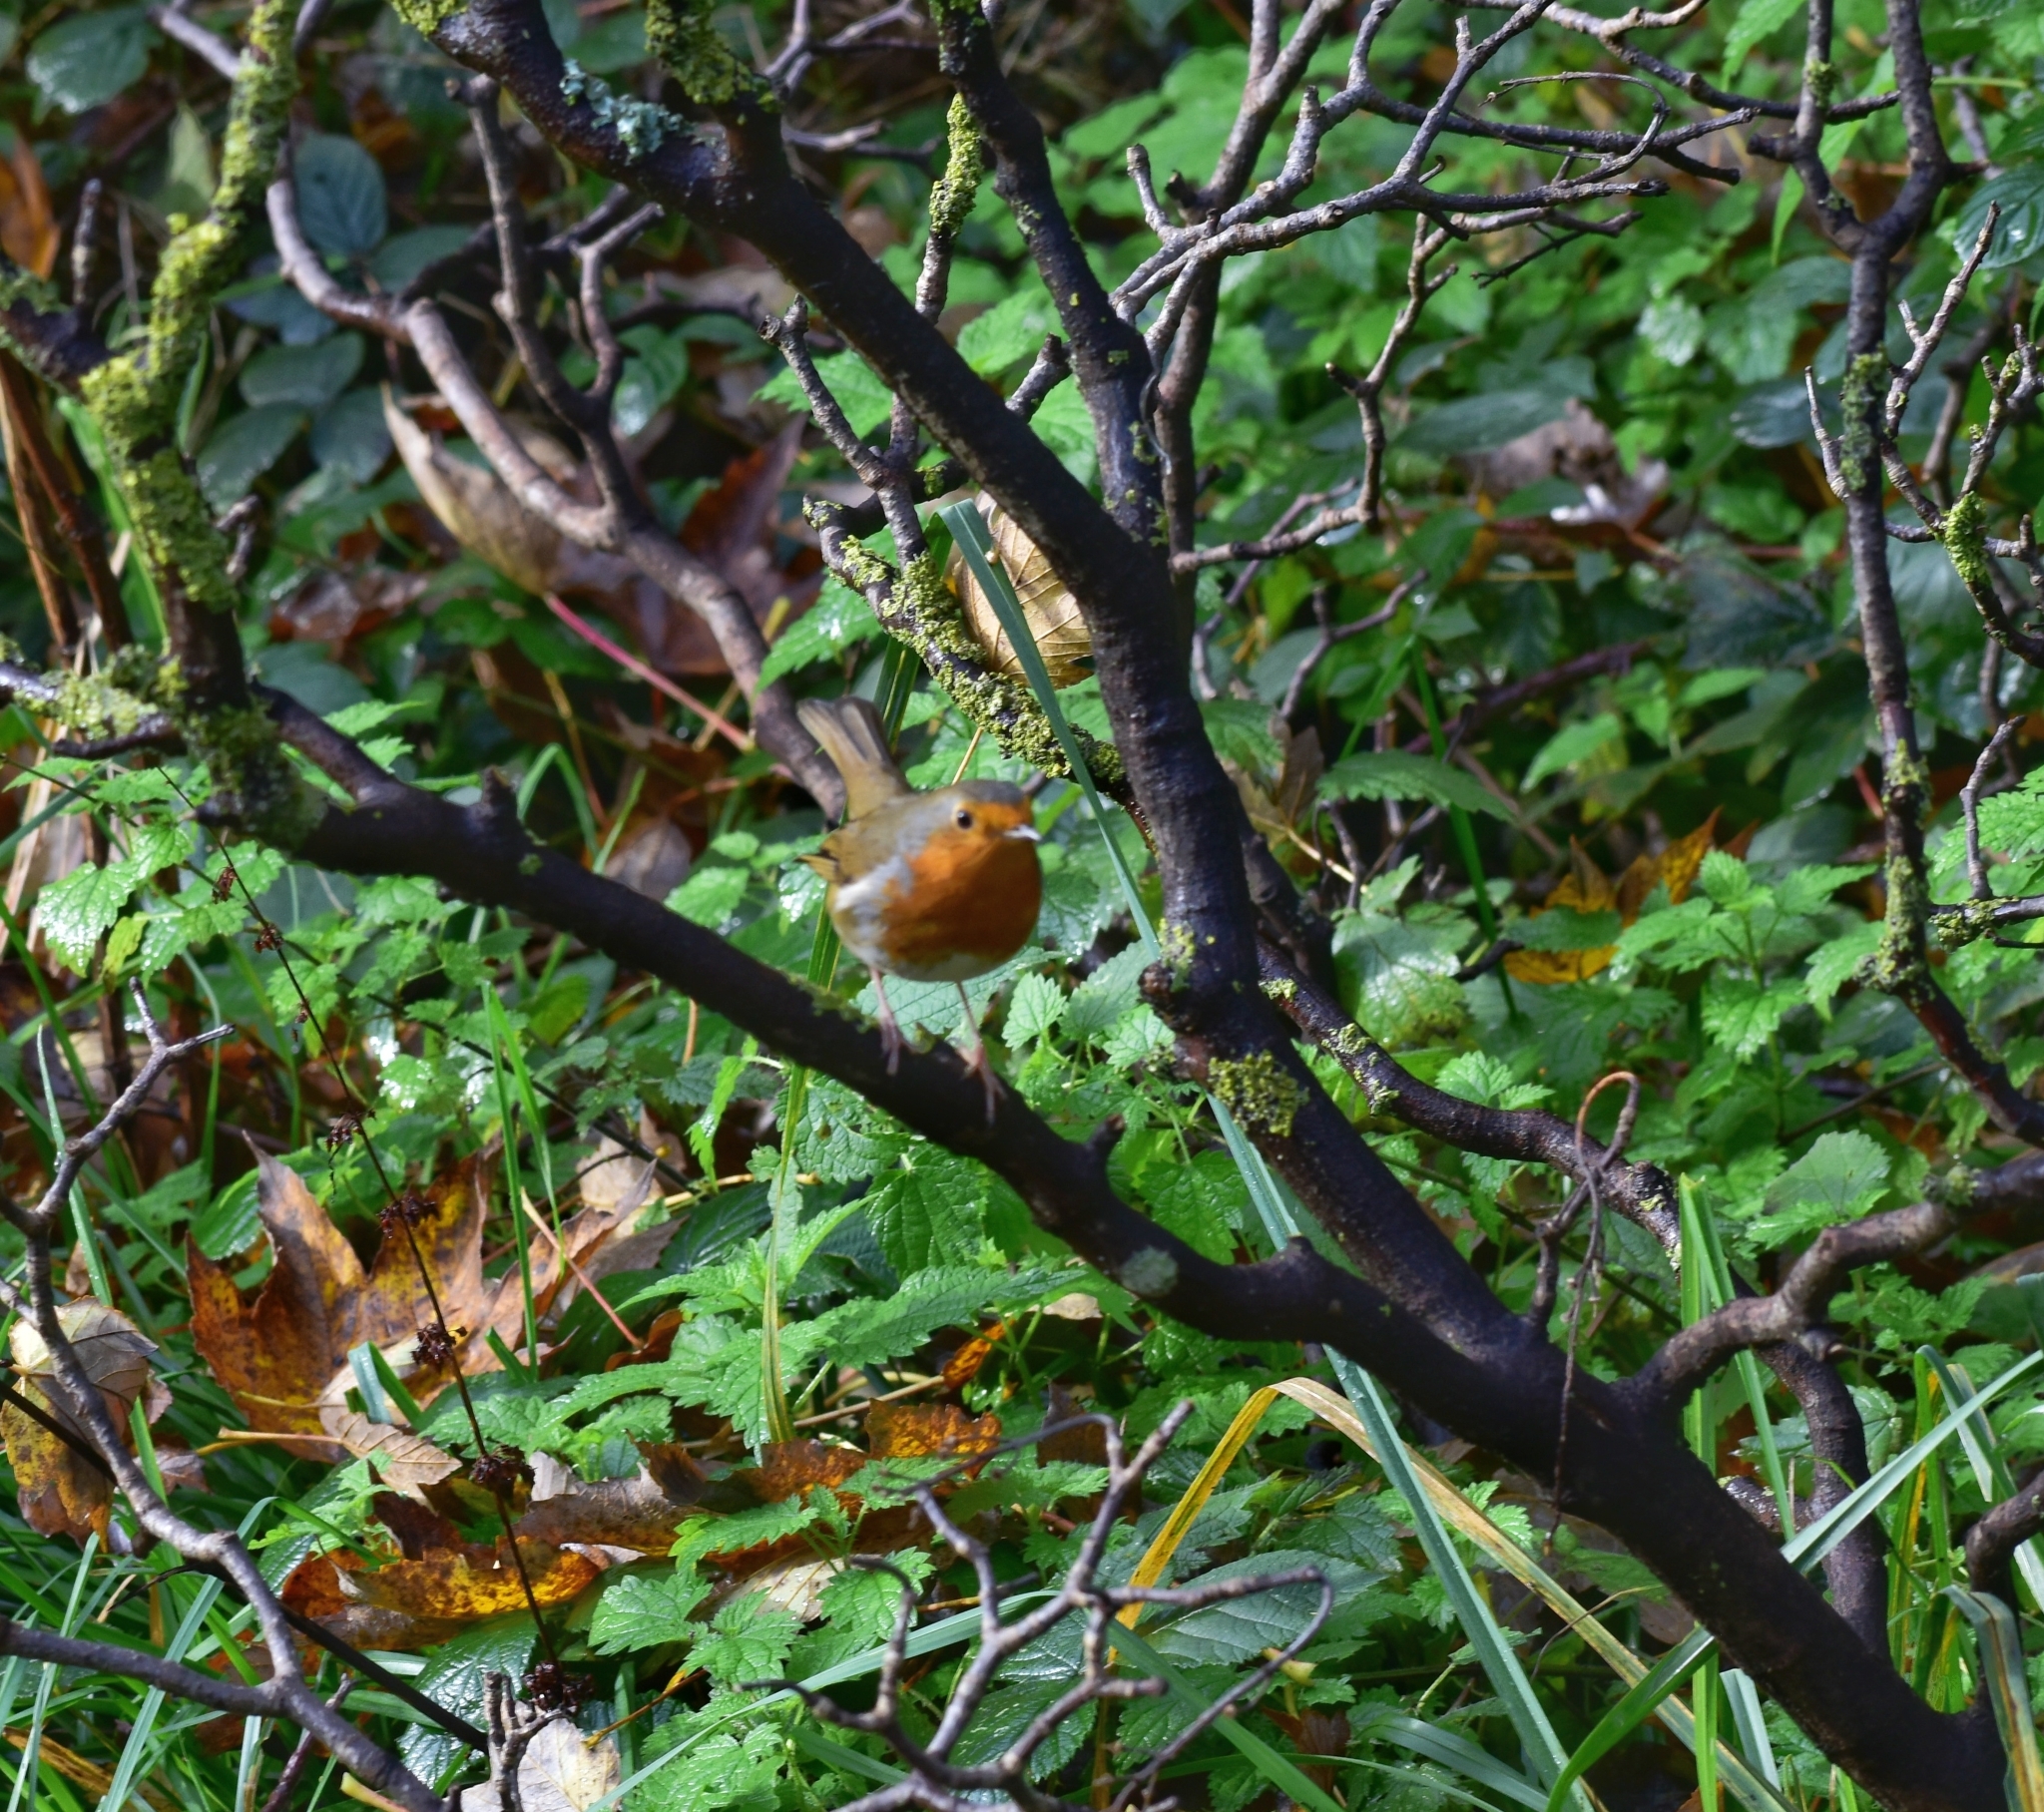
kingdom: Animalia
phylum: Chordata
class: Aves
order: Passeriformes
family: Muscicapidae
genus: Erithacus
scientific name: Erithacus rubecula
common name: European robin
